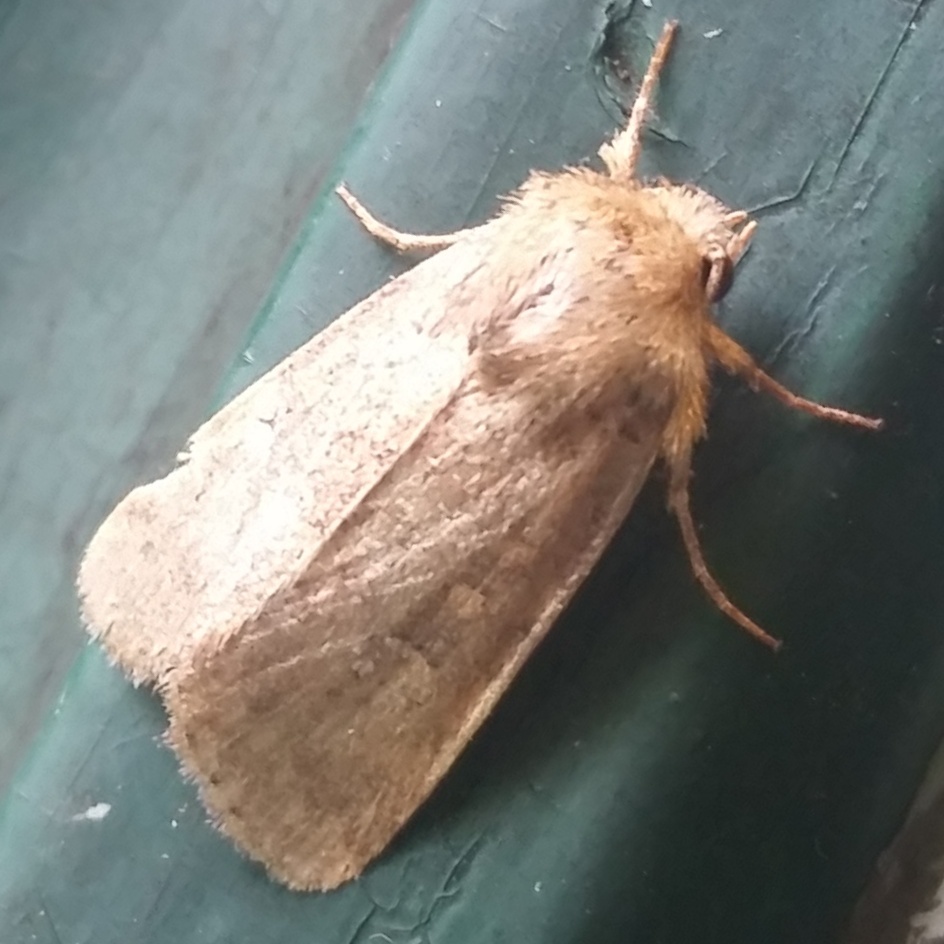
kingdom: Animalia
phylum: Arthropoda
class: Insecta
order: Lepidoptera
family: Noctuidae
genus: Leucania
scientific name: Leucania inermis
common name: Unarmed wainscot
